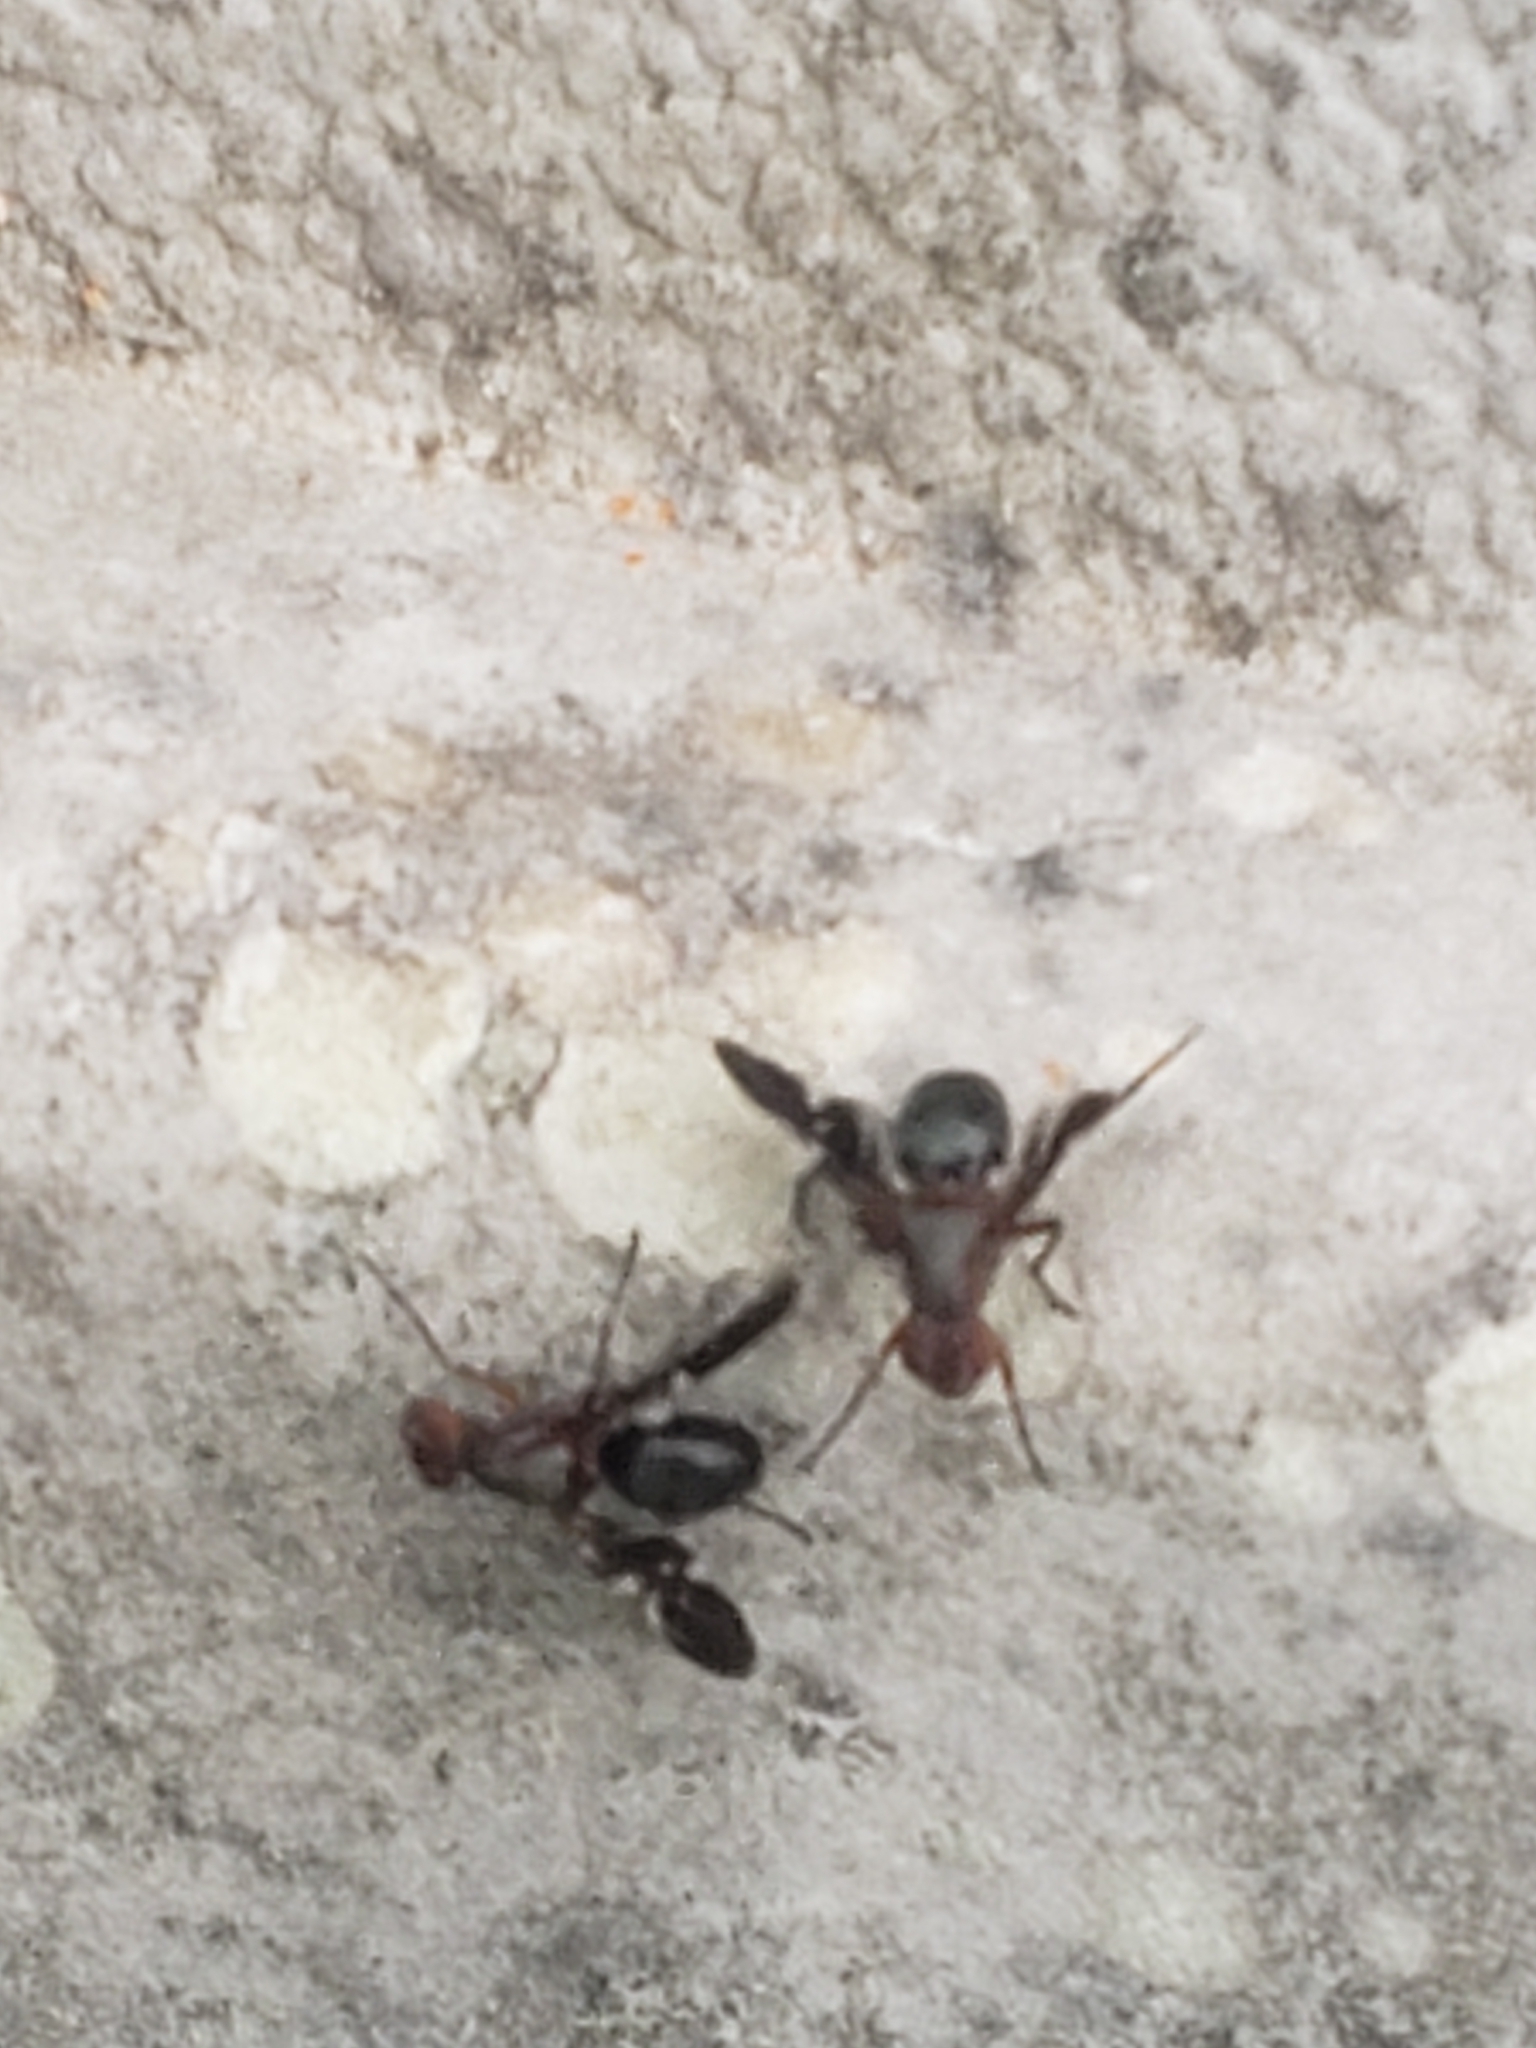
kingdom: Animalia
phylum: Arthropoda
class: Insecta
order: Diptera
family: Ulidiidae
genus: Delphinia
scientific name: Delphinia picta
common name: Common picture-winged fly
